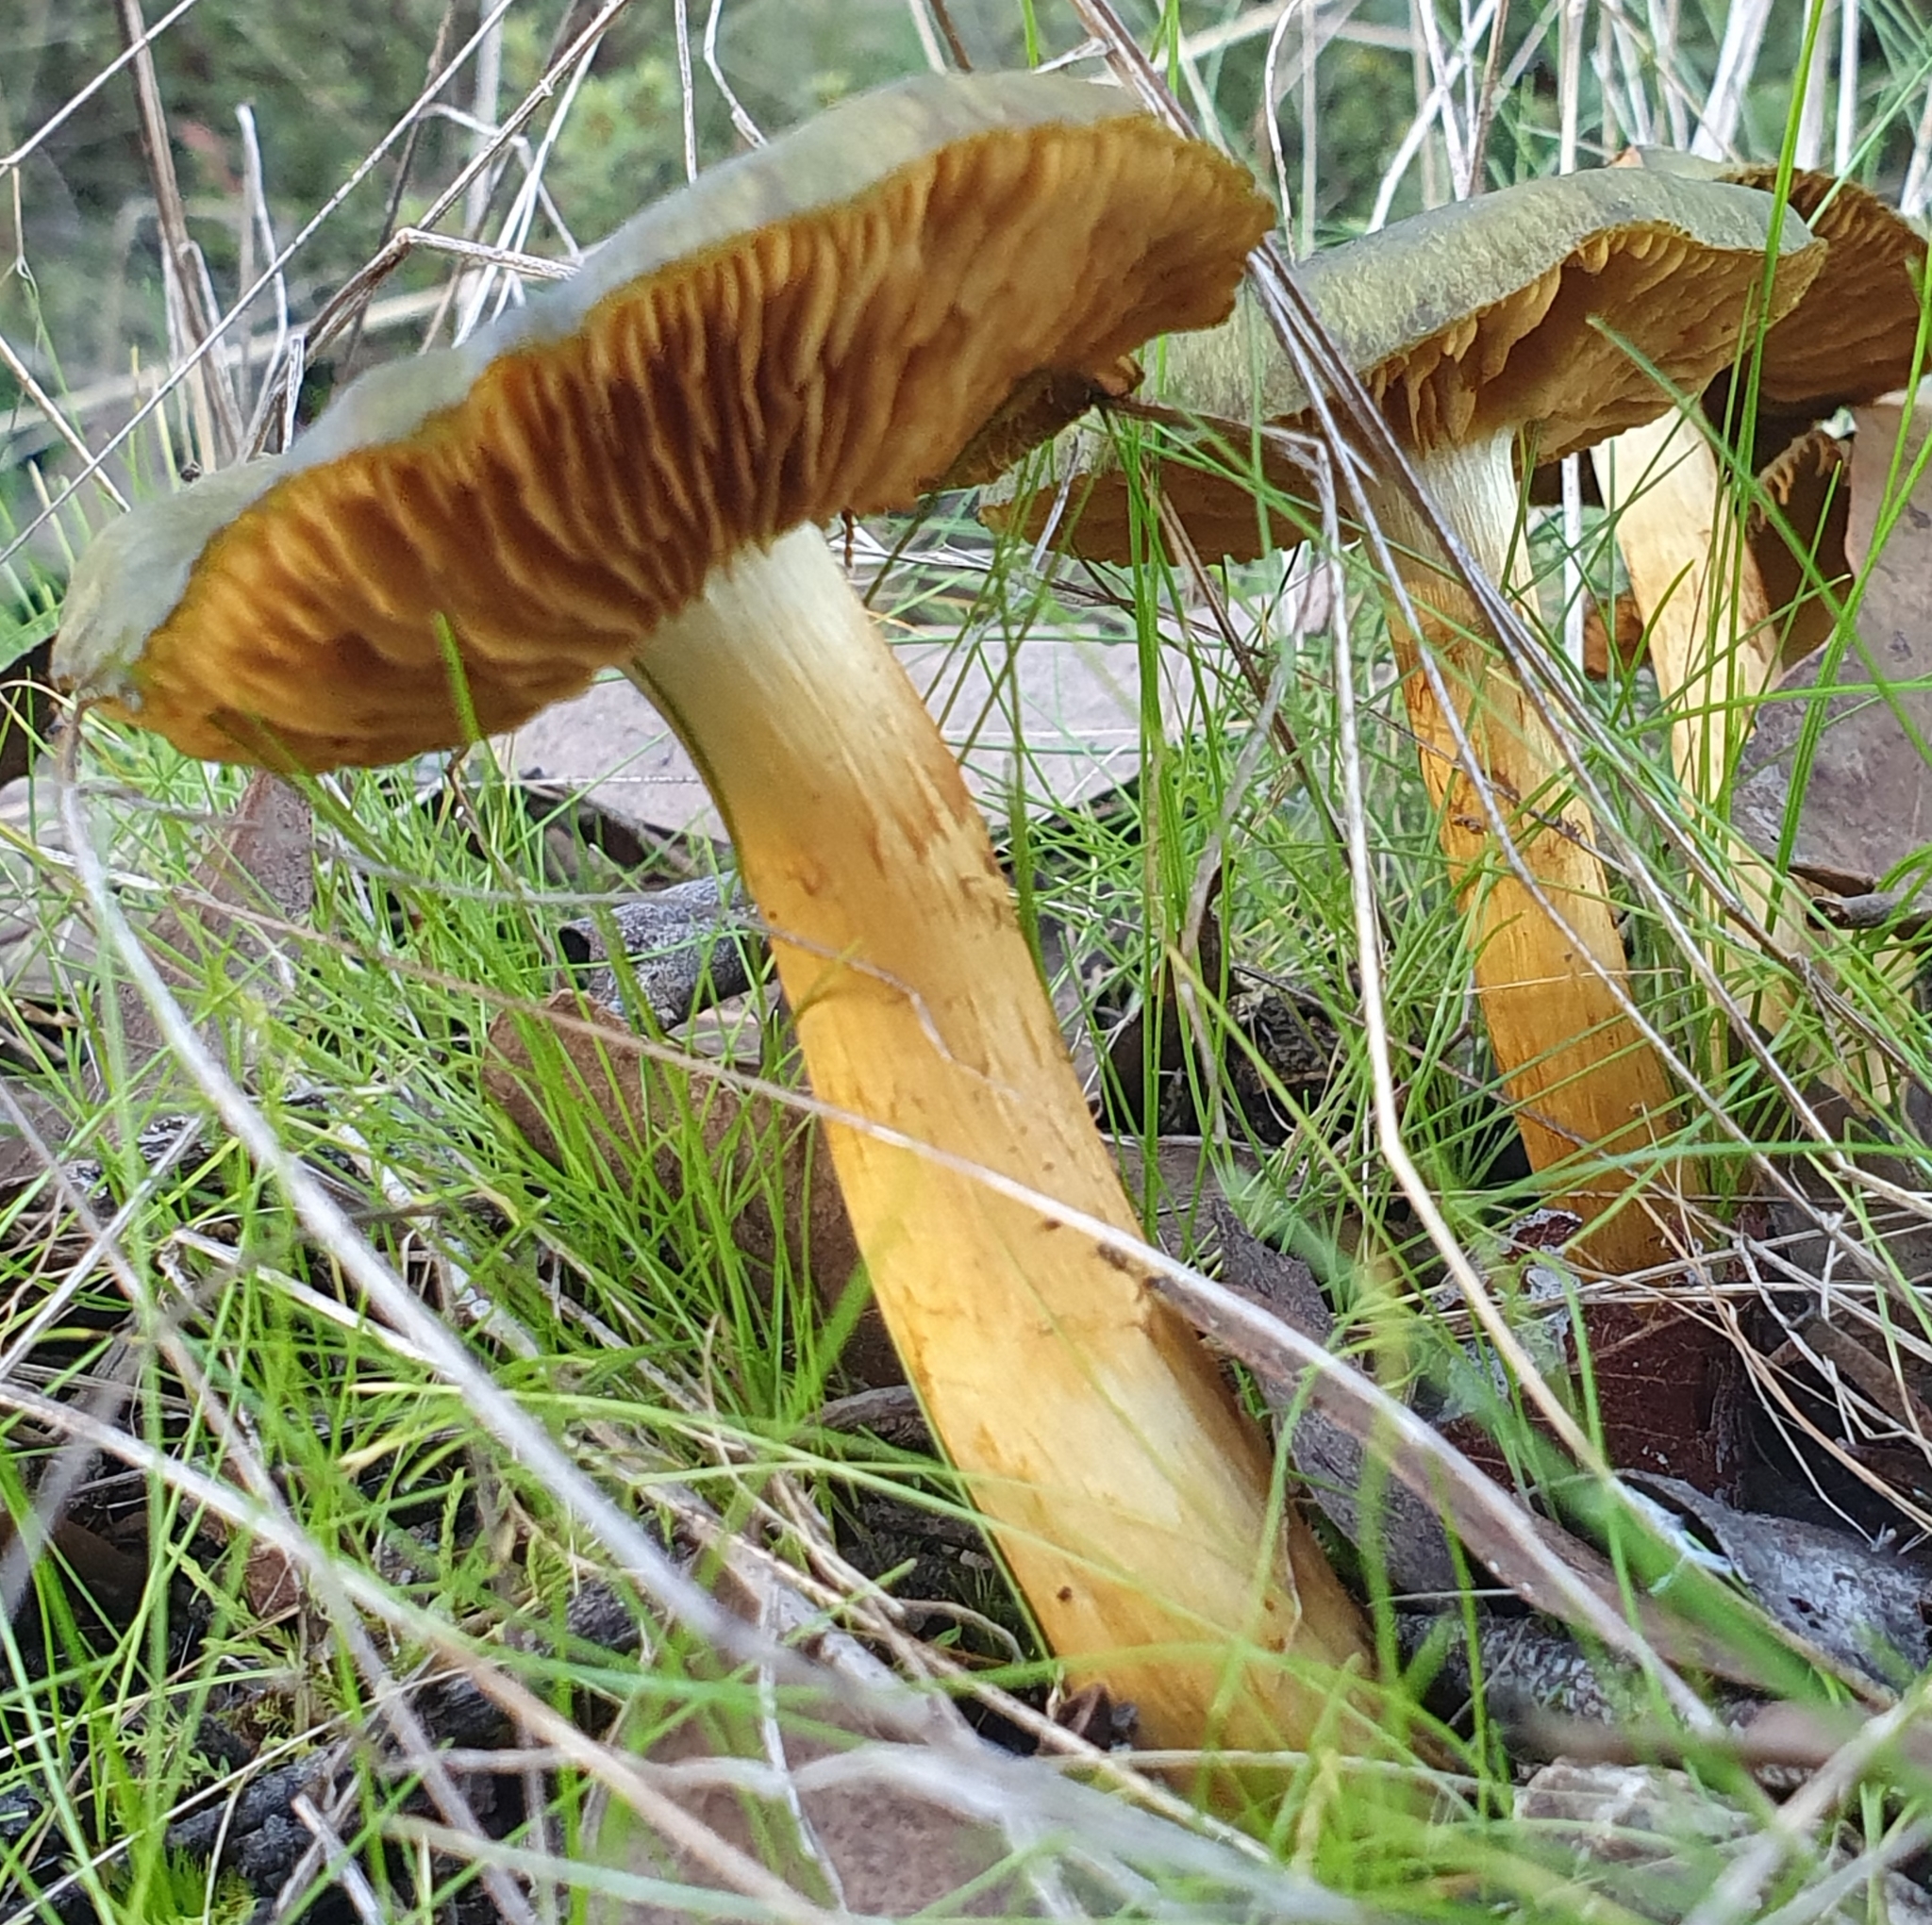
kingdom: Fungi
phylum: Basidiomycota
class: Agaricomycetes
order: Agaricales
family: Cortinariaceae
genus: Cortinarius
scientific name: Cortinarius austrovenetus
